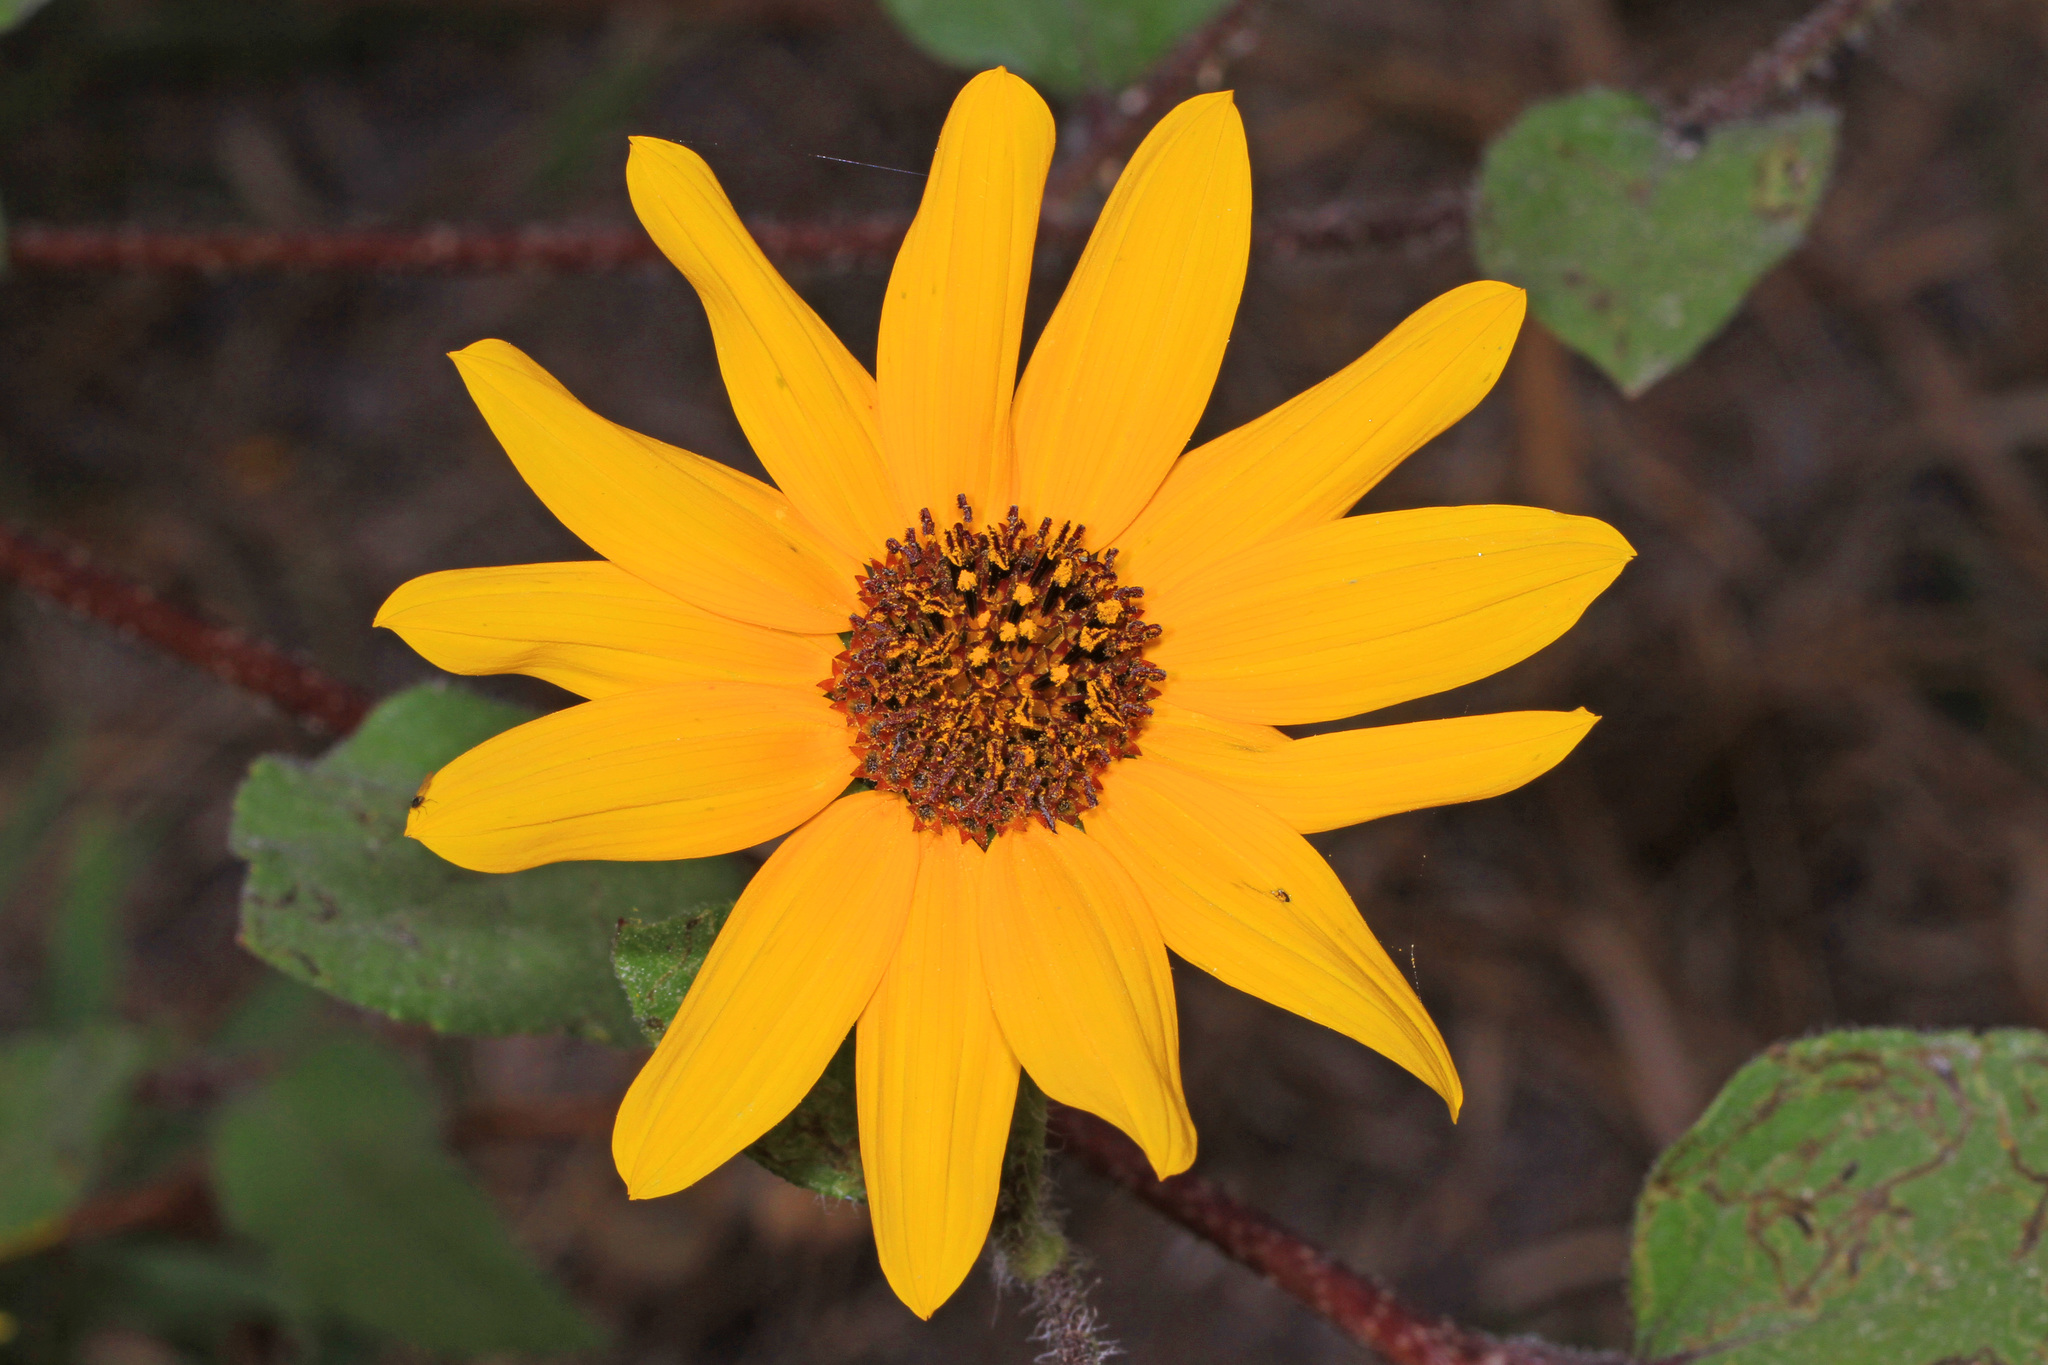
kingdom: Plantae
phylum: Tracheophyta
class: Magnoliopsida
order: Asterales
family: Asteraceae
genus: Helianthus
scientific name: Helianthus annuus
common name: Sunflower
